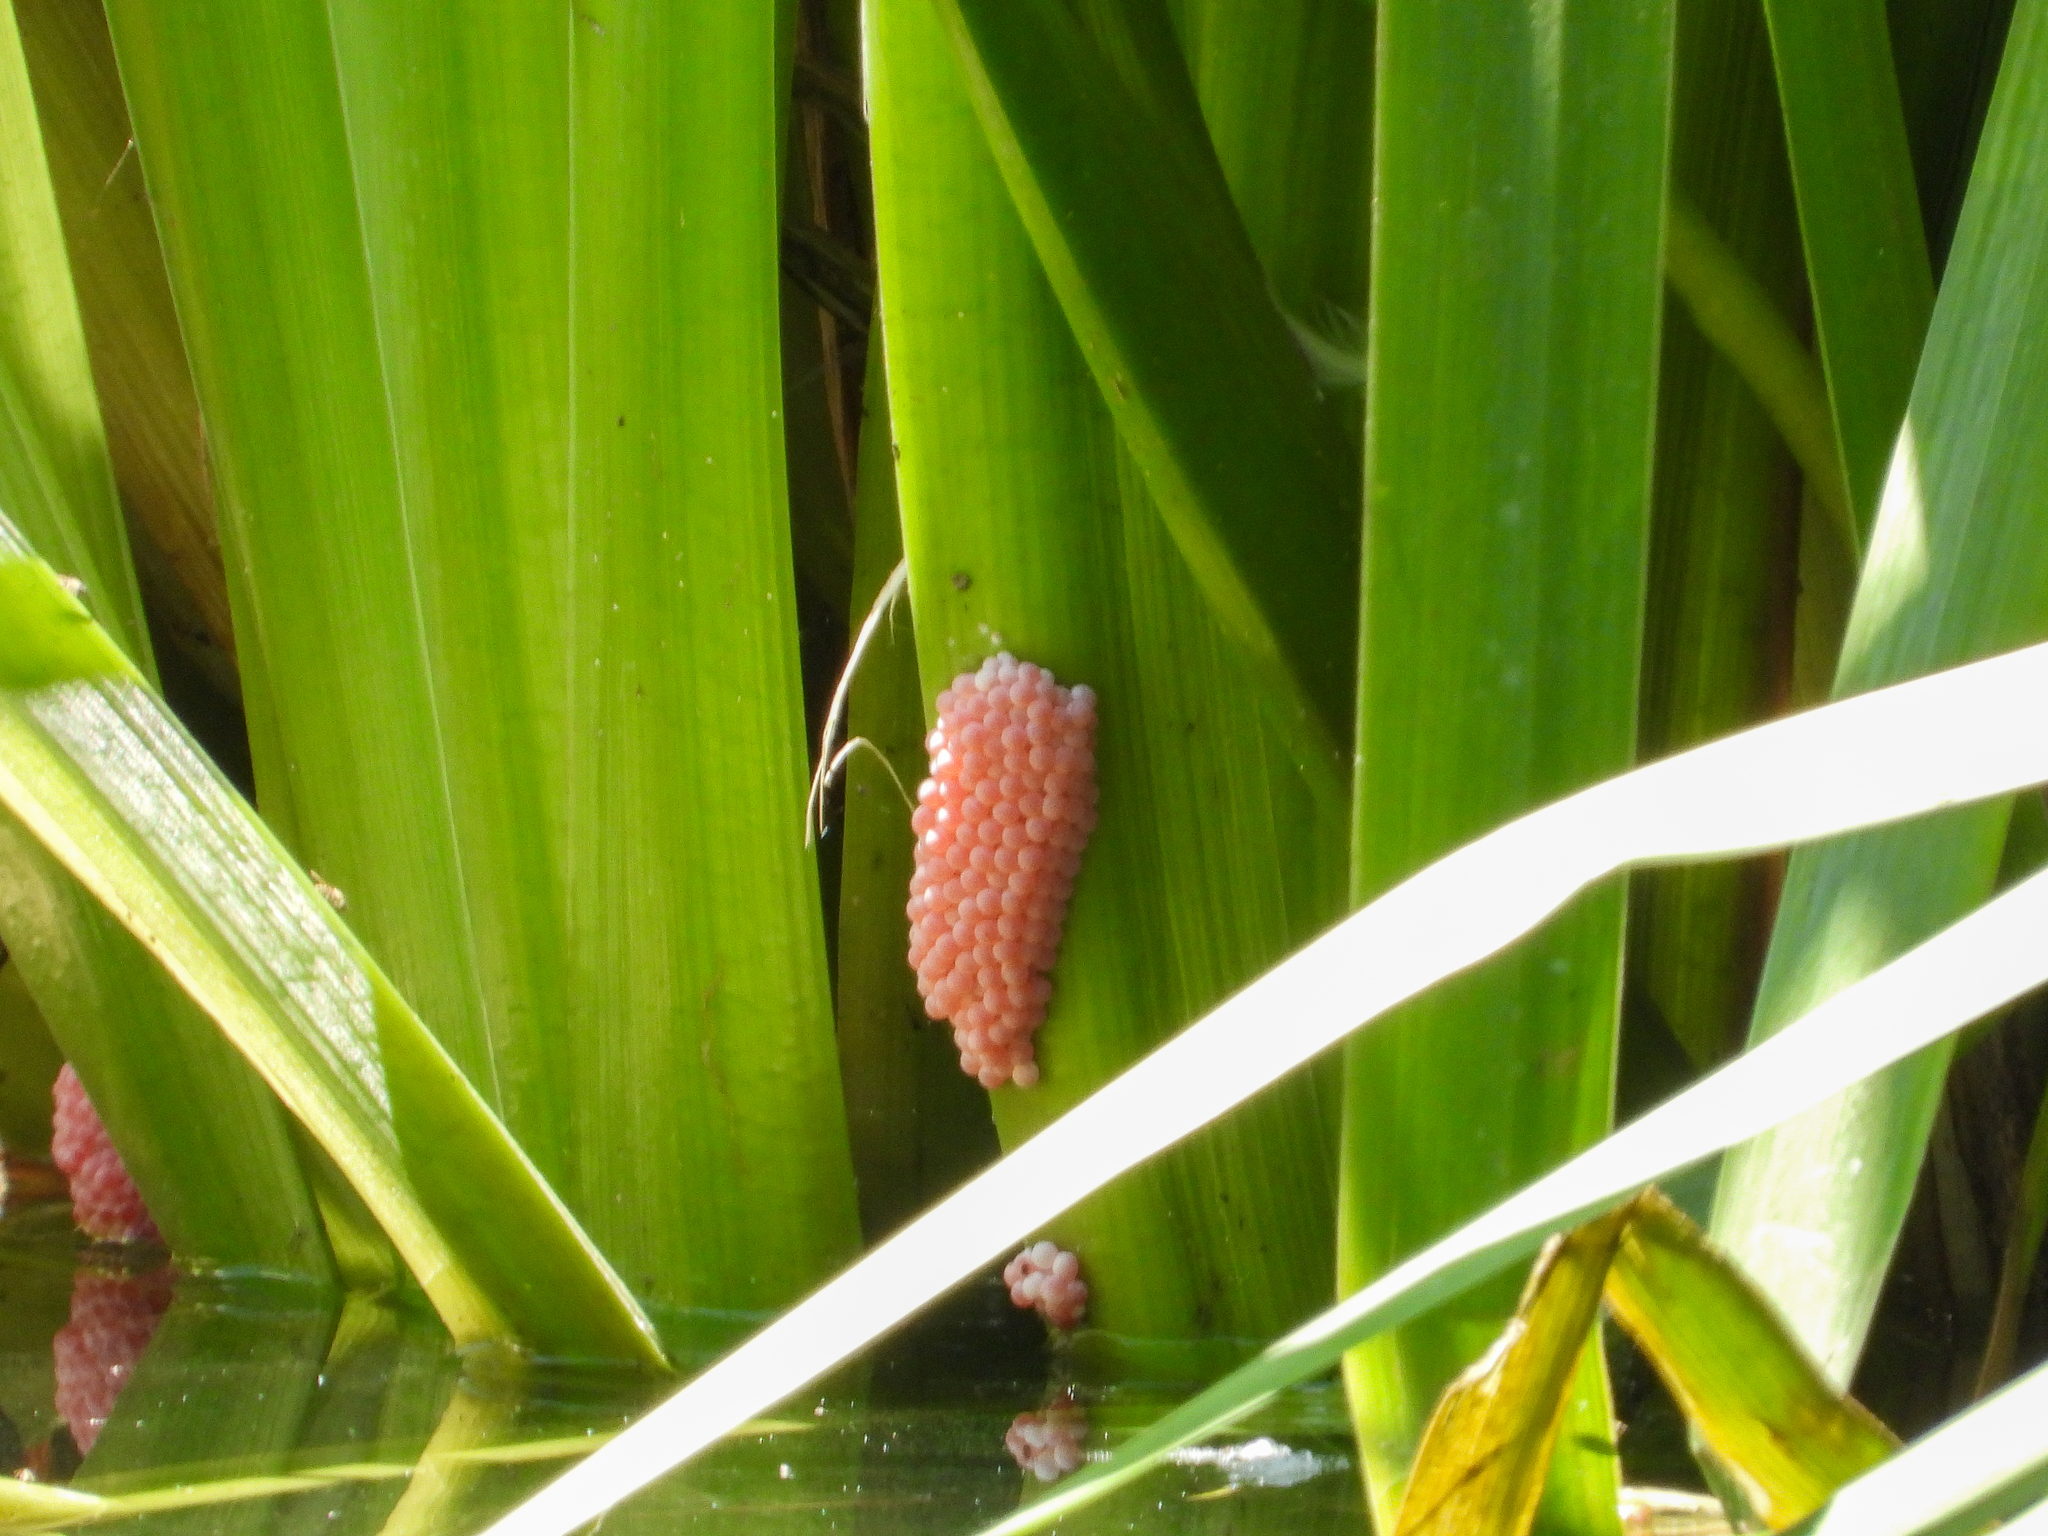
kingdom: Animalia
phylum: Mollusca
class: Gastropoda
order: Architaenioglossa
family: Ampullariidae
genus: Pomacea
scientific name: Pomacea canaliculata
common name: Channeled applesnail
